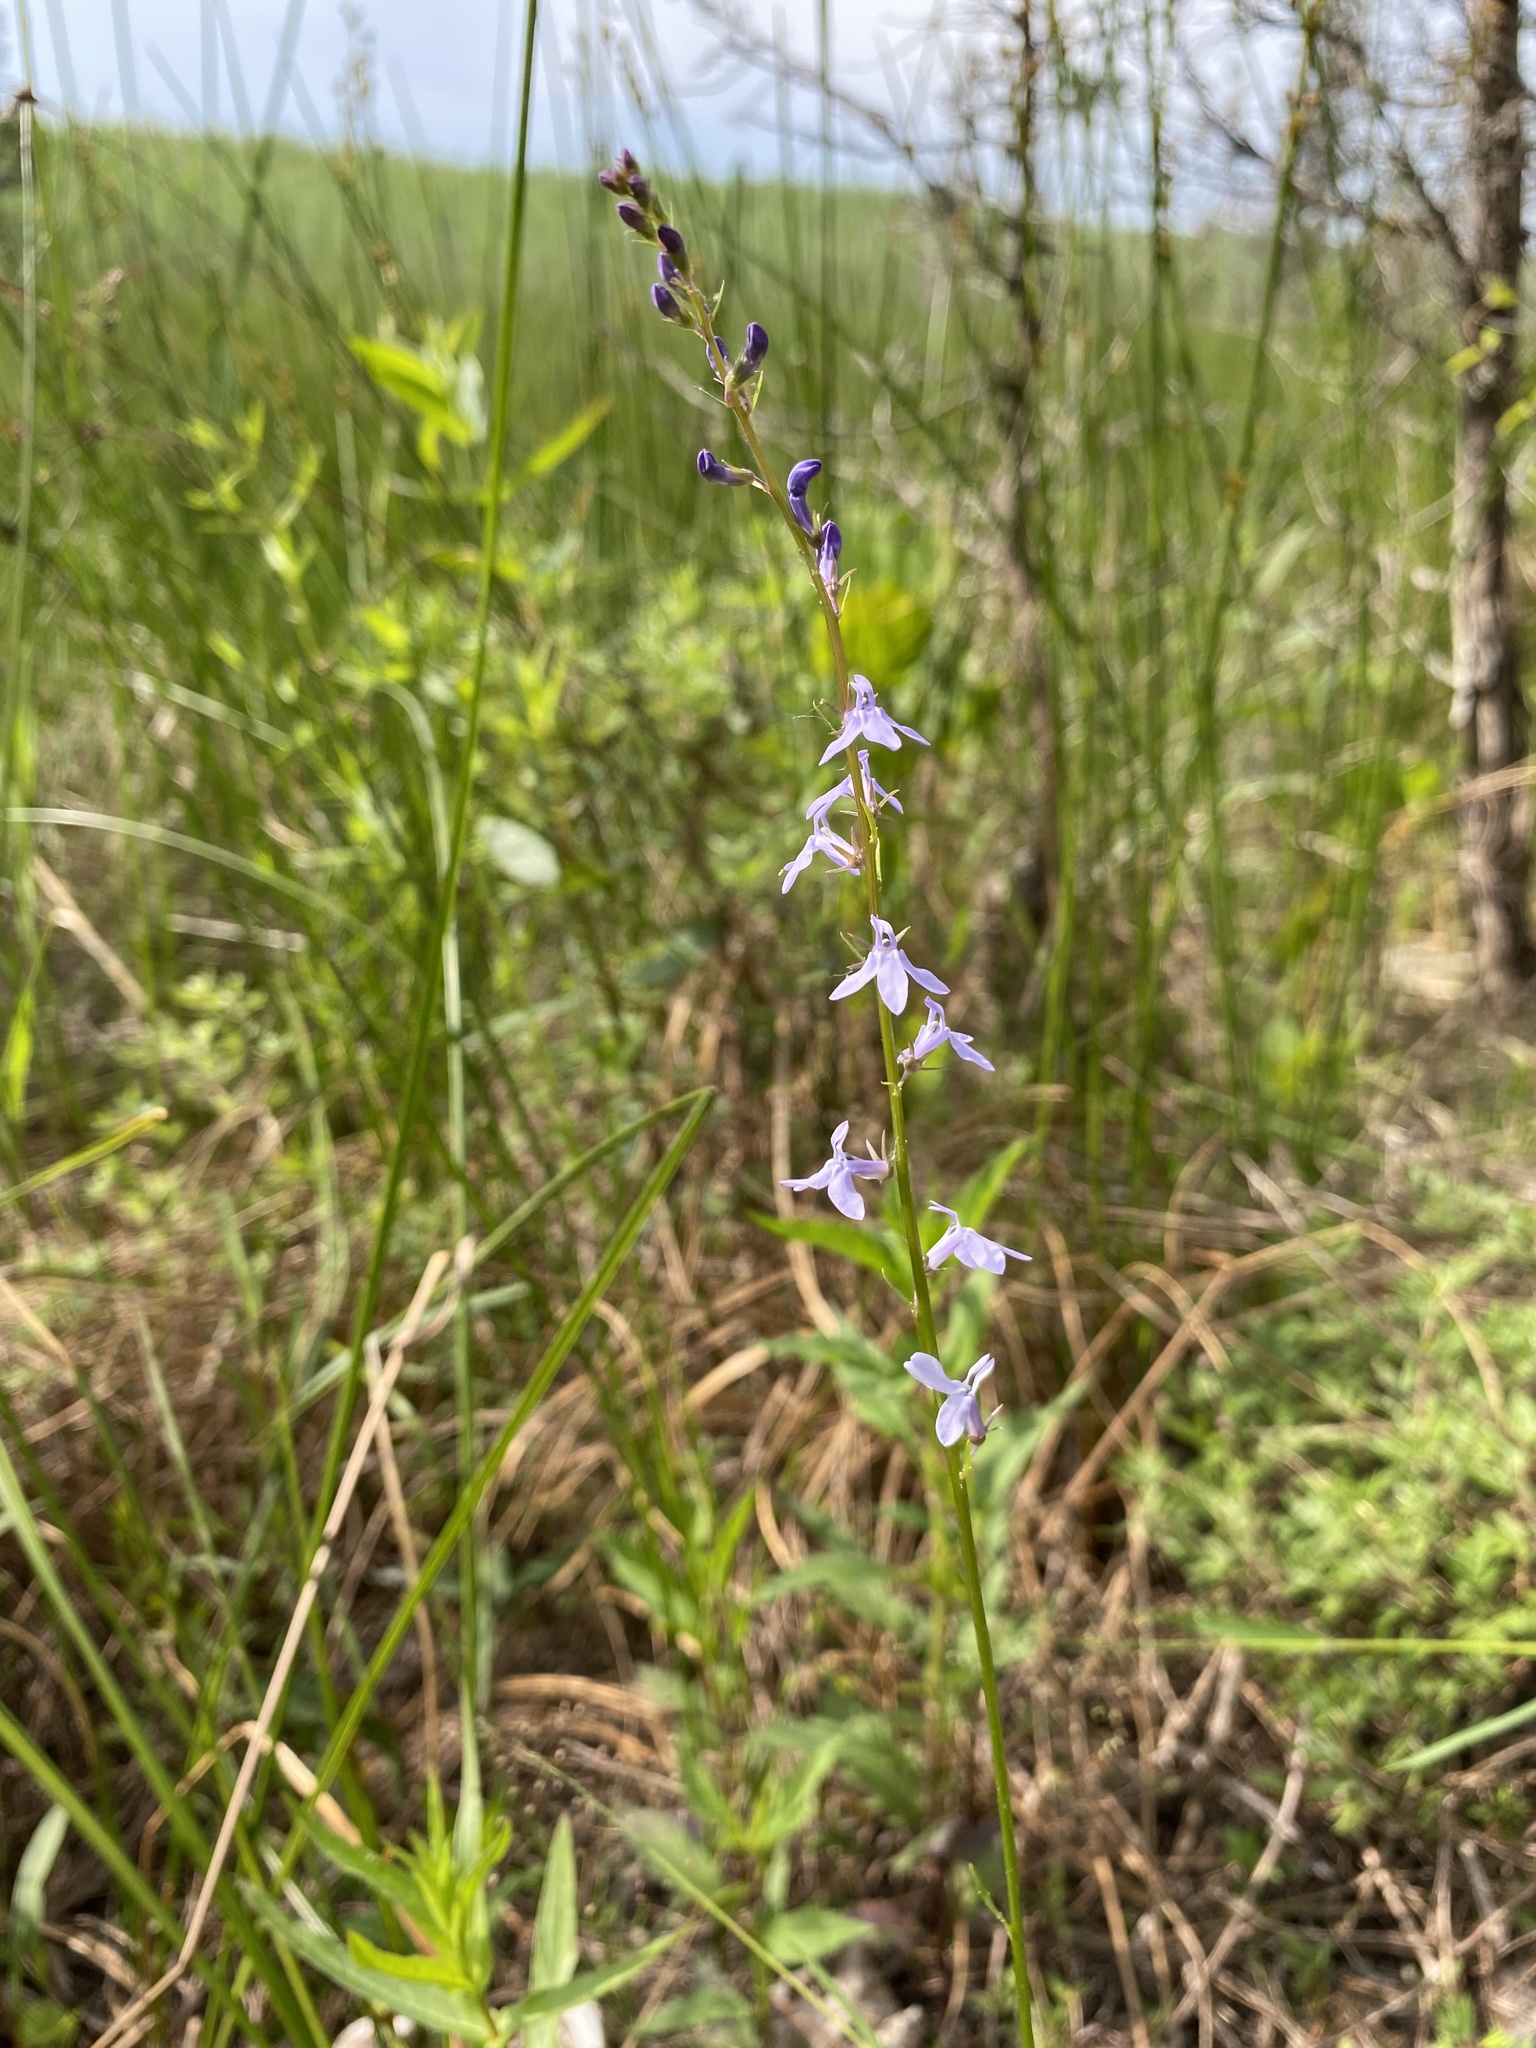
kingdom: Plantae
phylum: Tracheophyta
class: Magnoliopsida
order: Asterales
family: Campanulaceae
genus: Lobelia
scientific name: Lobelia spicata
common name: Pale-spike lobelia
